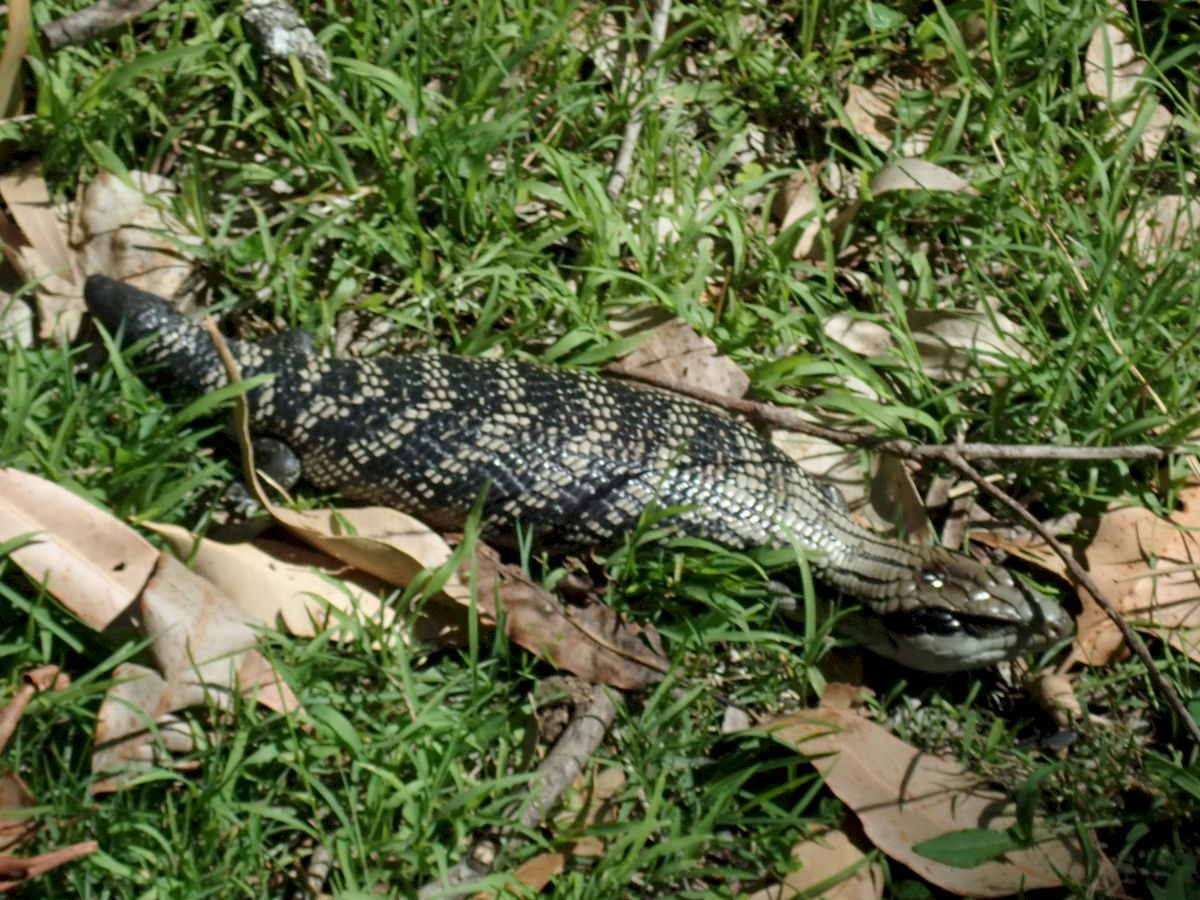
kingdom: Animalia
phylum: Chordata
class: Squamata
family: Scincidae
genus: Tiliqua
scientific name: Tiliqua scincoides
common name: Common bluetongue
